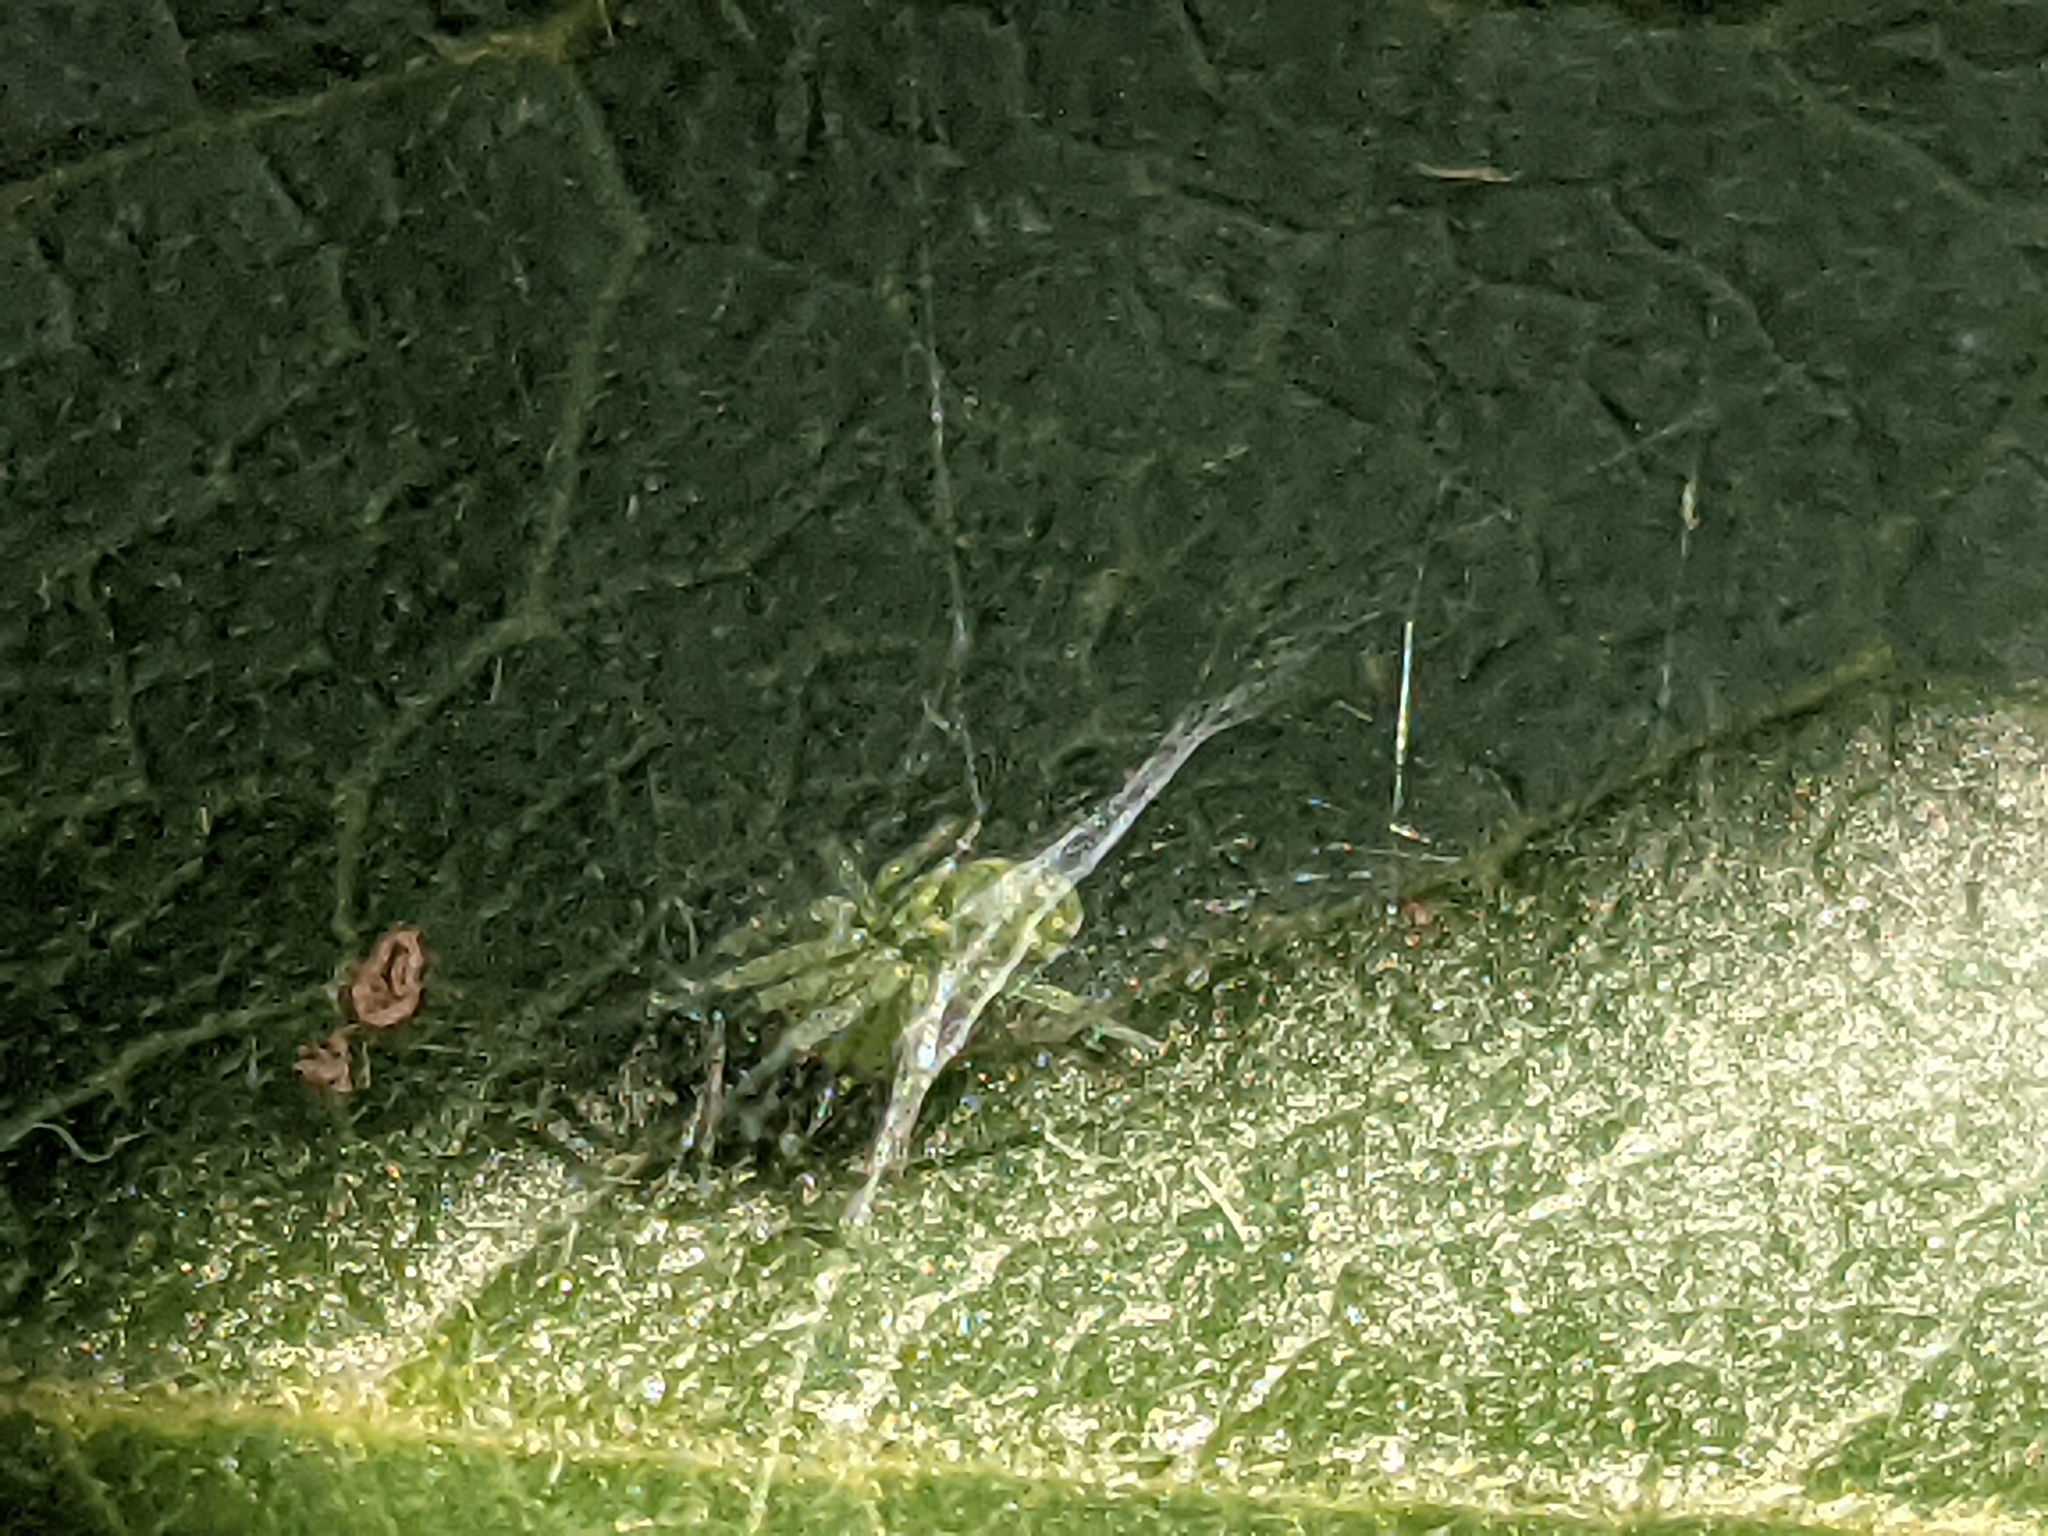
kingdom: Animalia
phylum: Arthropoda
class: Arachnida
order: Araneae
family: Dictynidae
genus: Nigma
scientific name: Nigma walckenaeri
